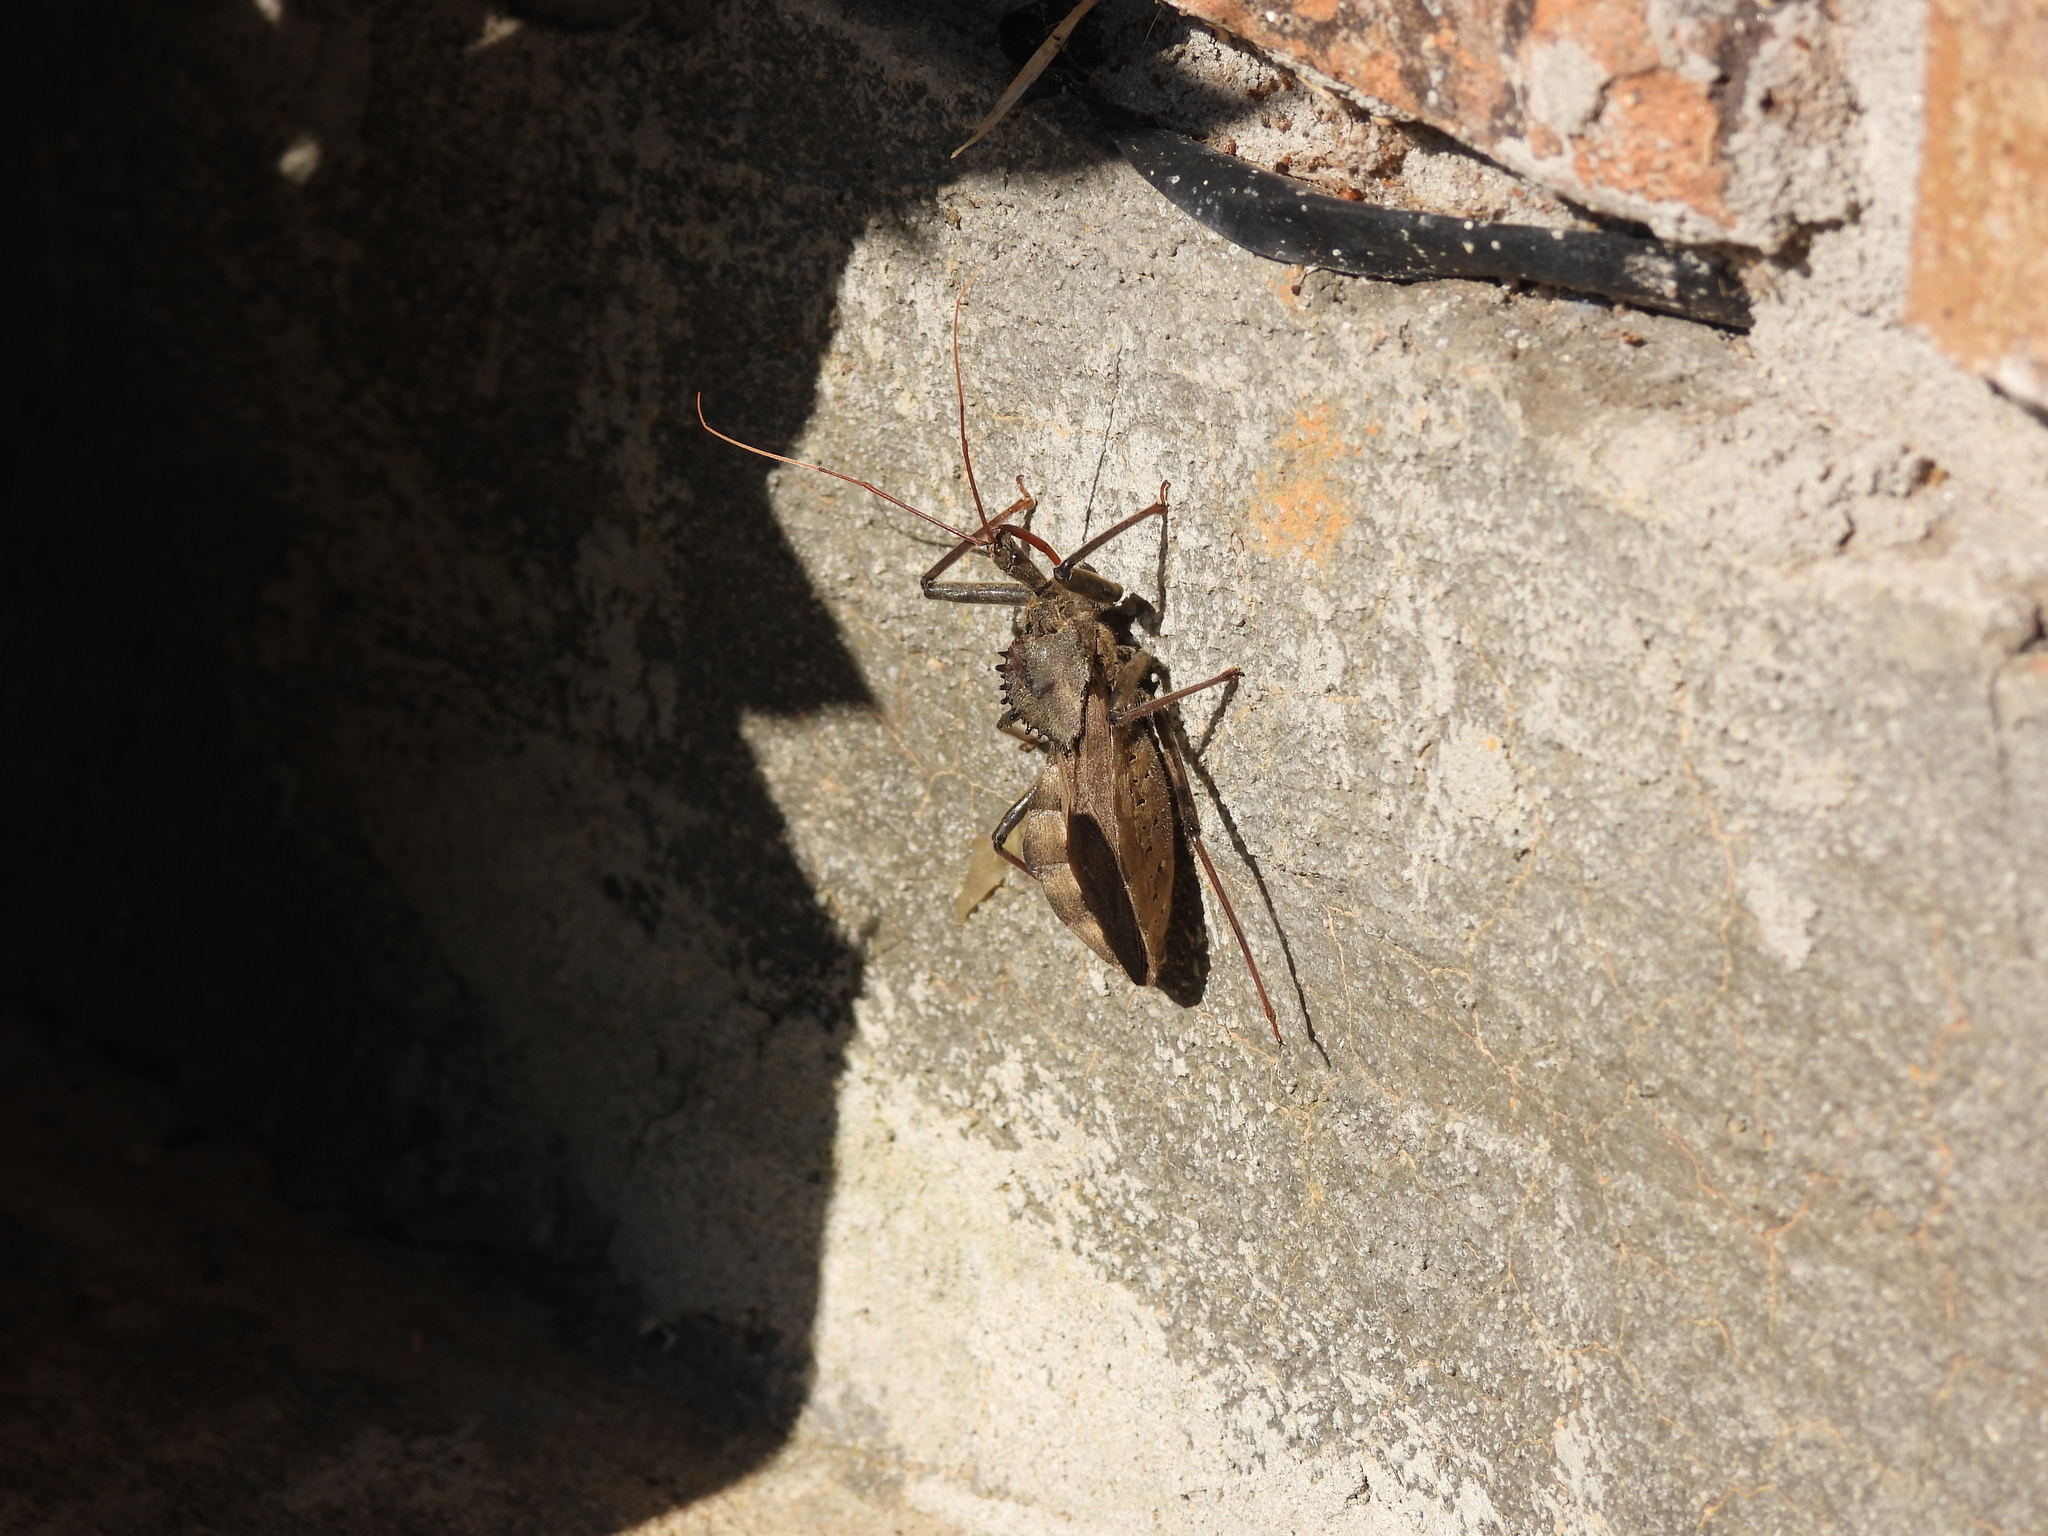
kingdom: Animalia
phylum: Arthropoda
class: Insecta
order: Hemiptera
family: Reduviidae
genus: Arilus
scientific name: Arilus cristatus
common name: North american wheel bug
